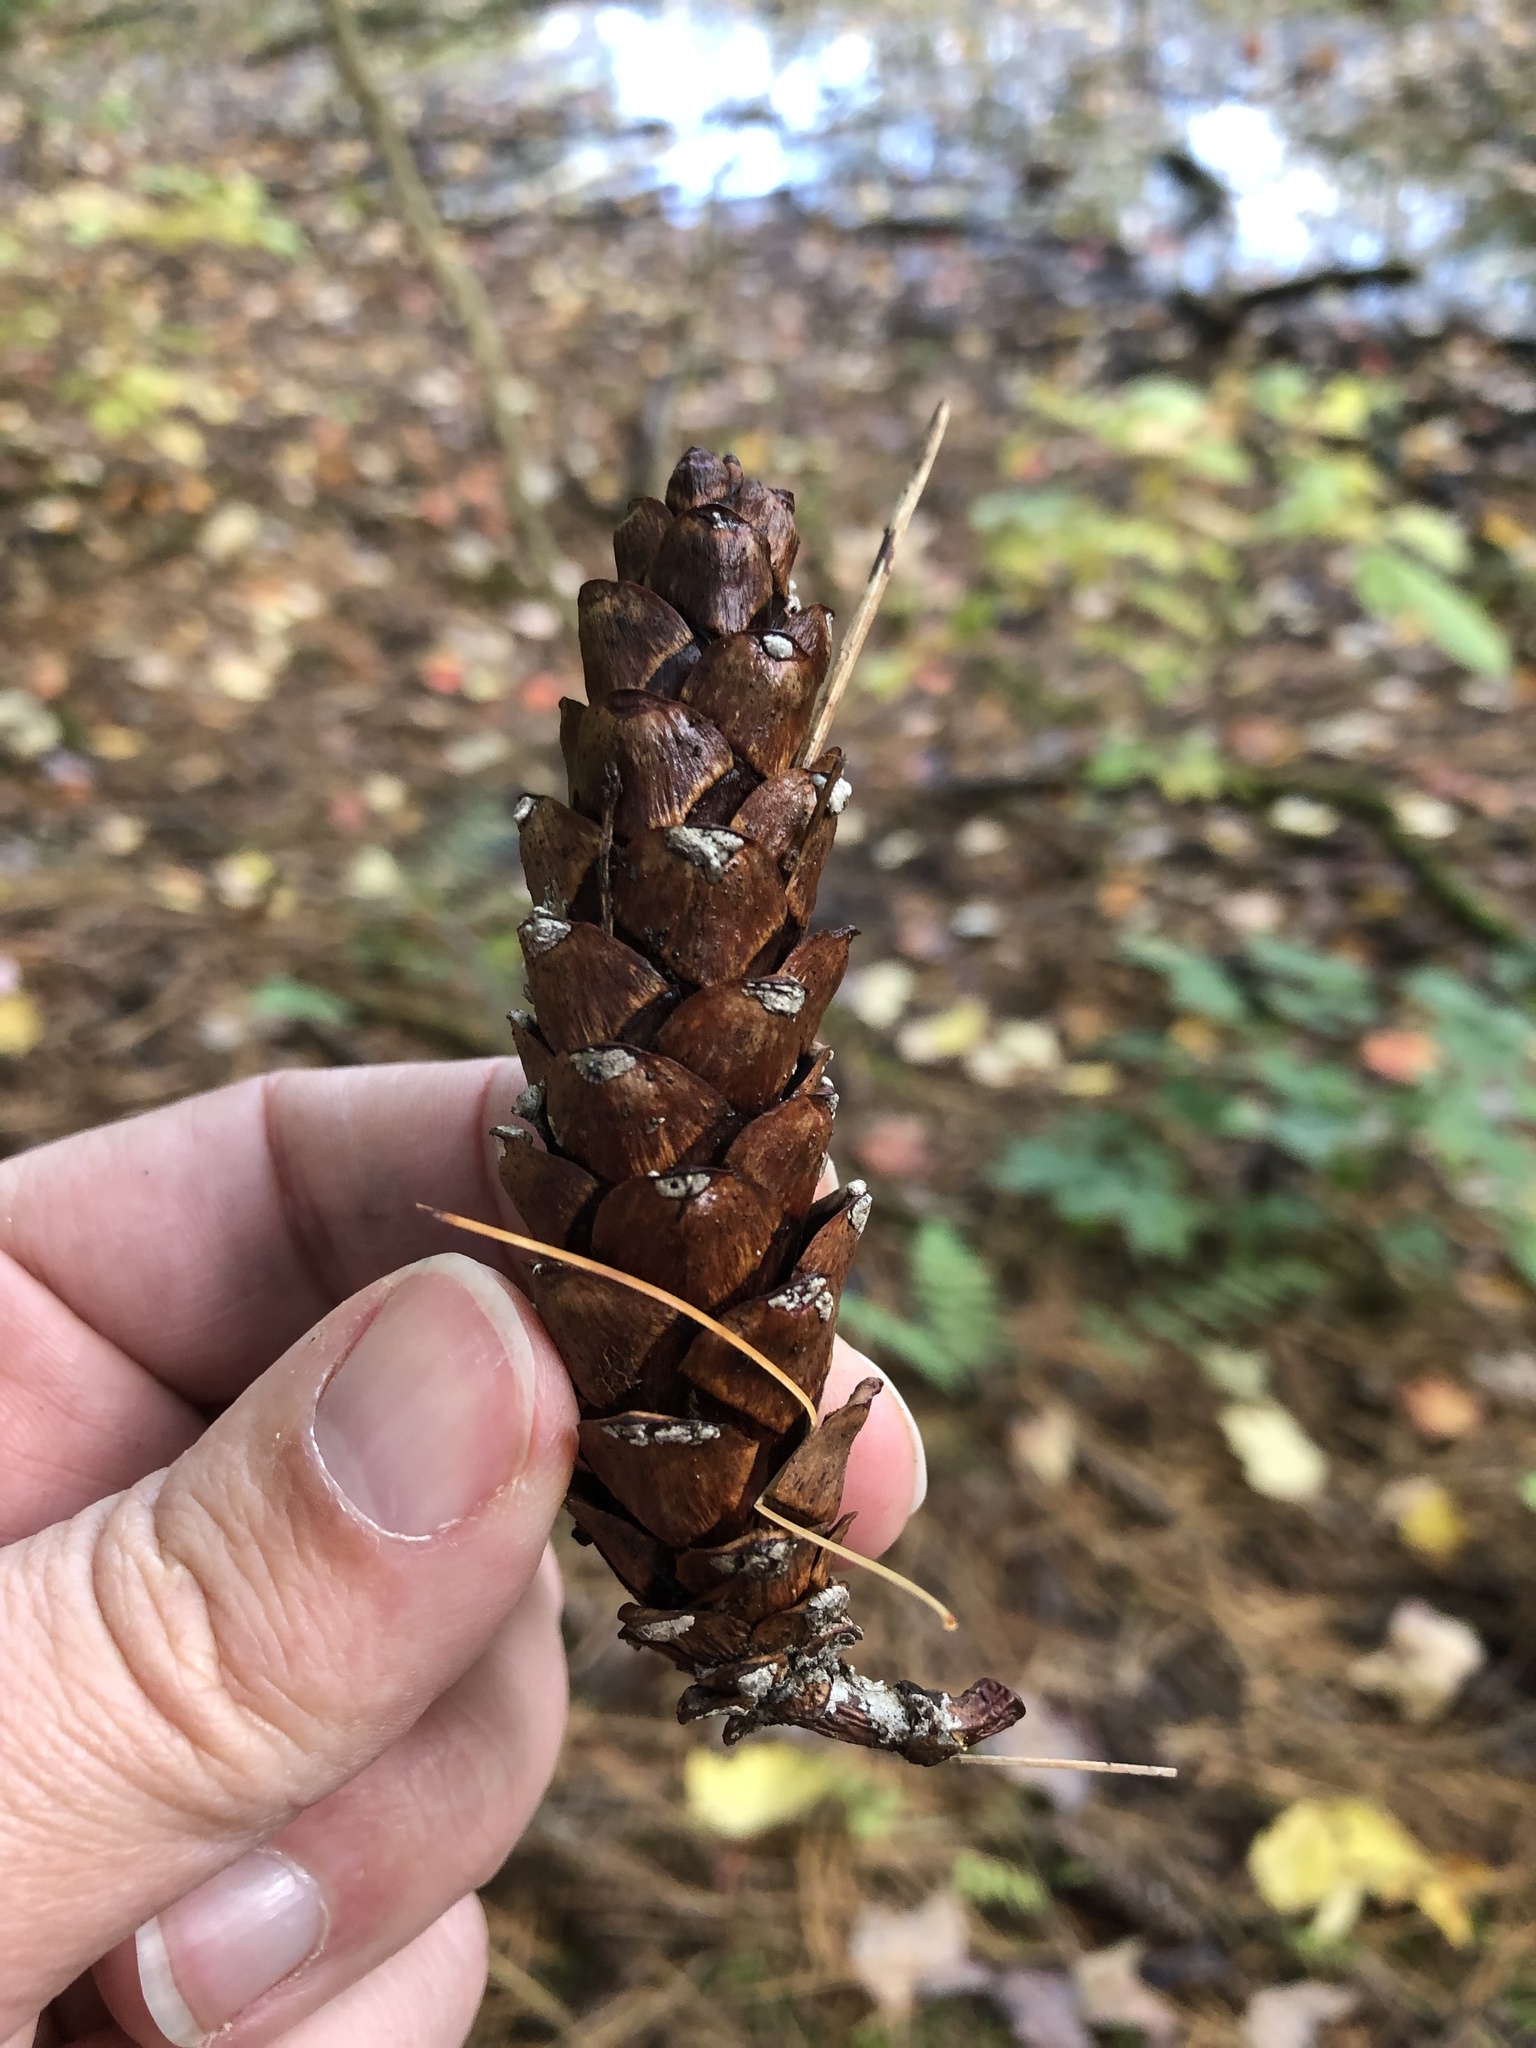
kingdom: Plantae
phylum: Tracheophyta
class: Pinopsida
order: Pinales
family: Pinaceae
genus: Pinus
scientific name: Pinus strobus
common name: Weymouth pine
